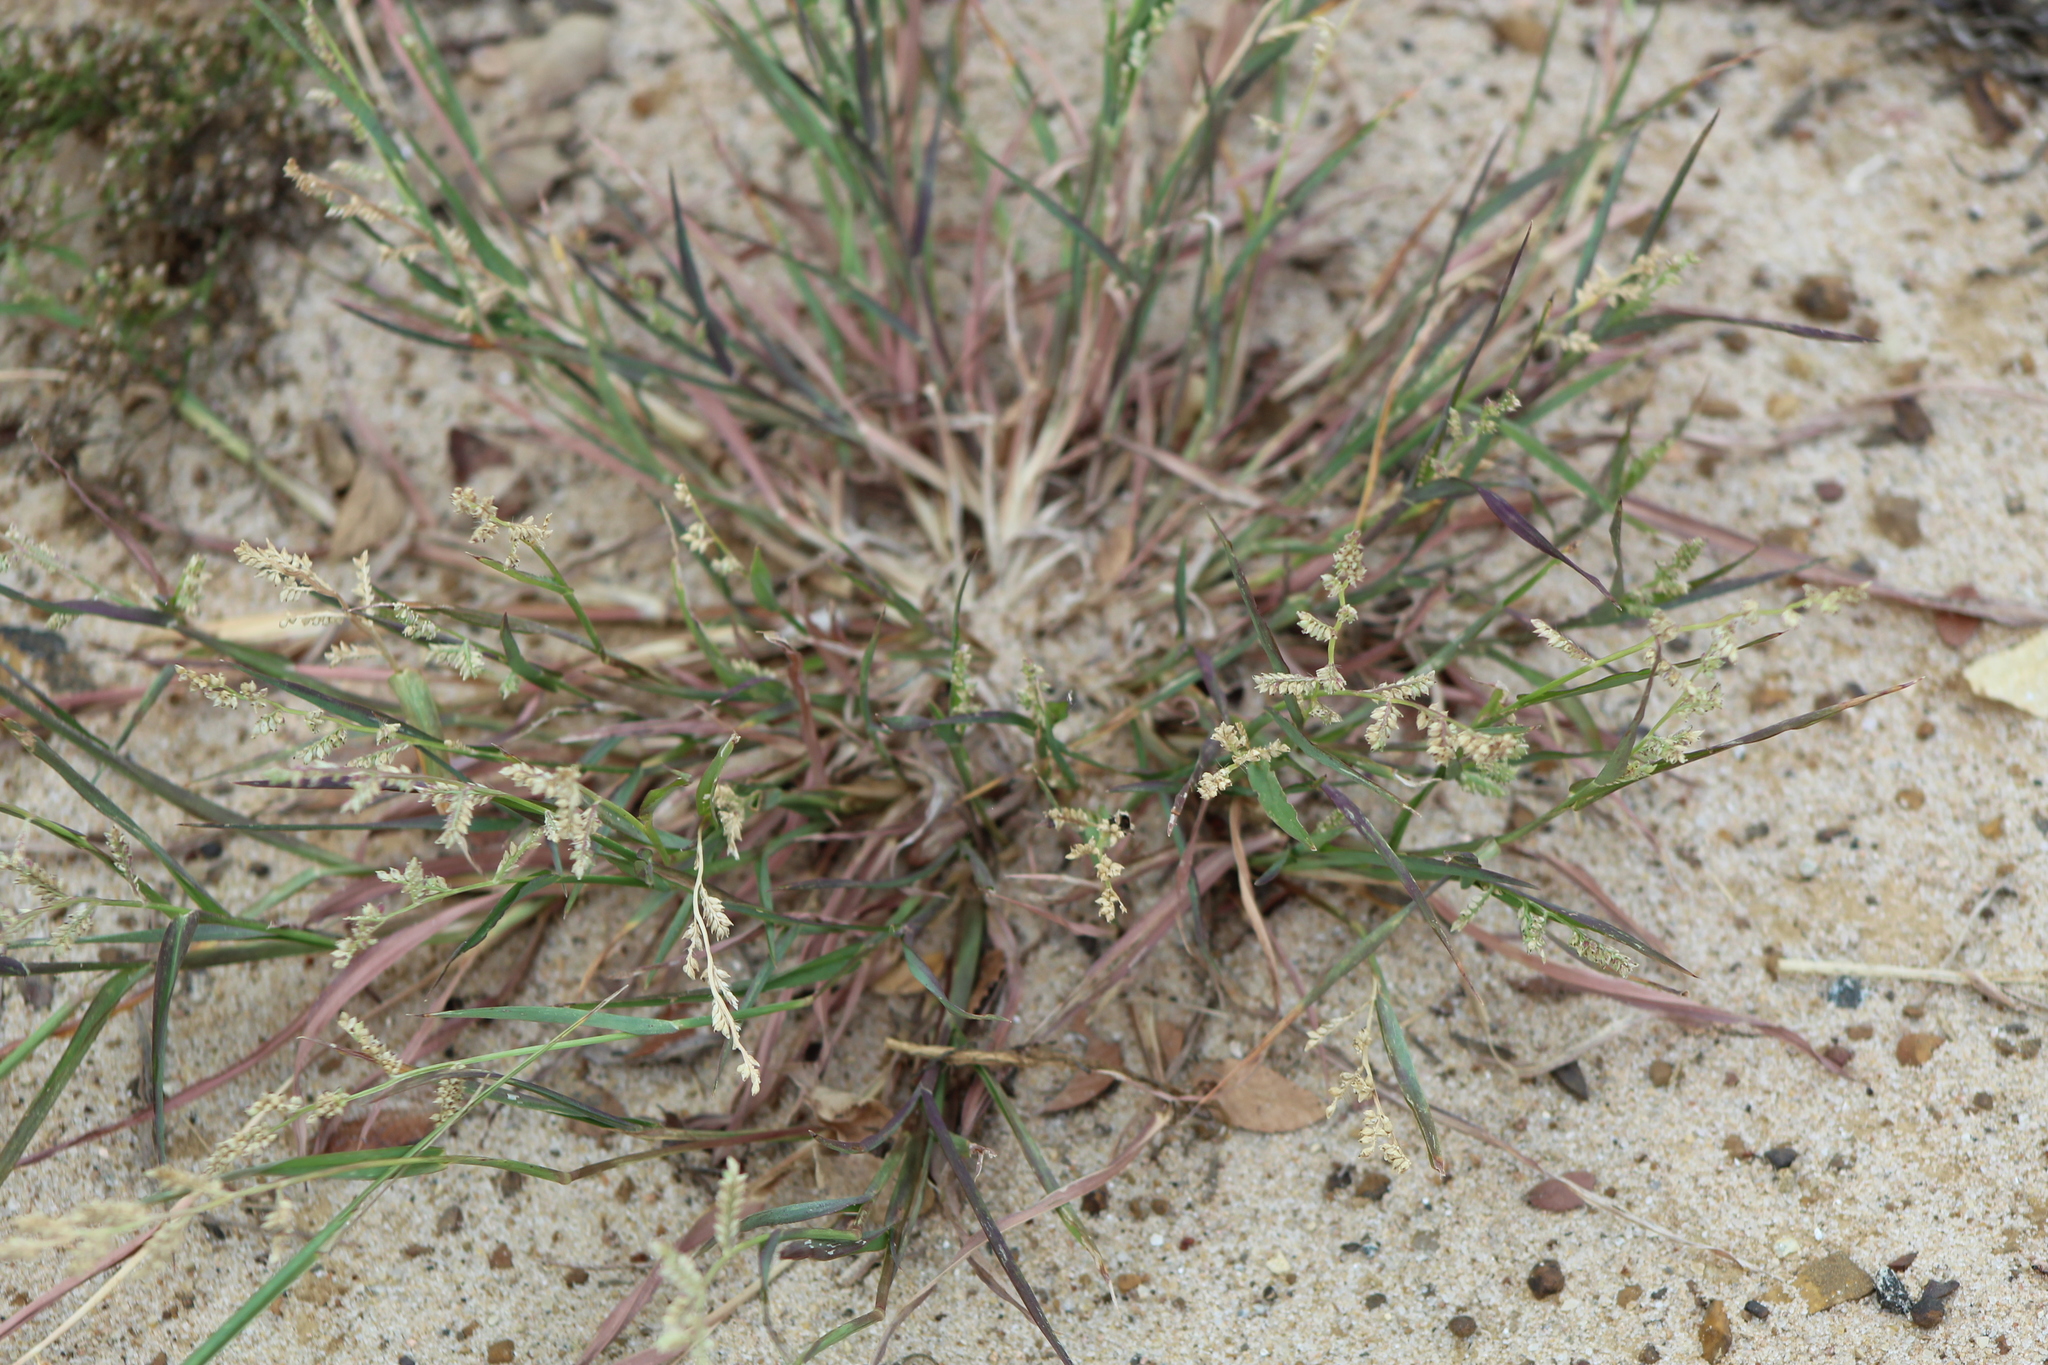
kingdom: Plantae
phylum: Tracheophyta
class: Liliopsida
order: Poales
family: Poaceae
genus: Echinochloa
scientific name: Echinochloa colonum
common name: Jungle rice
